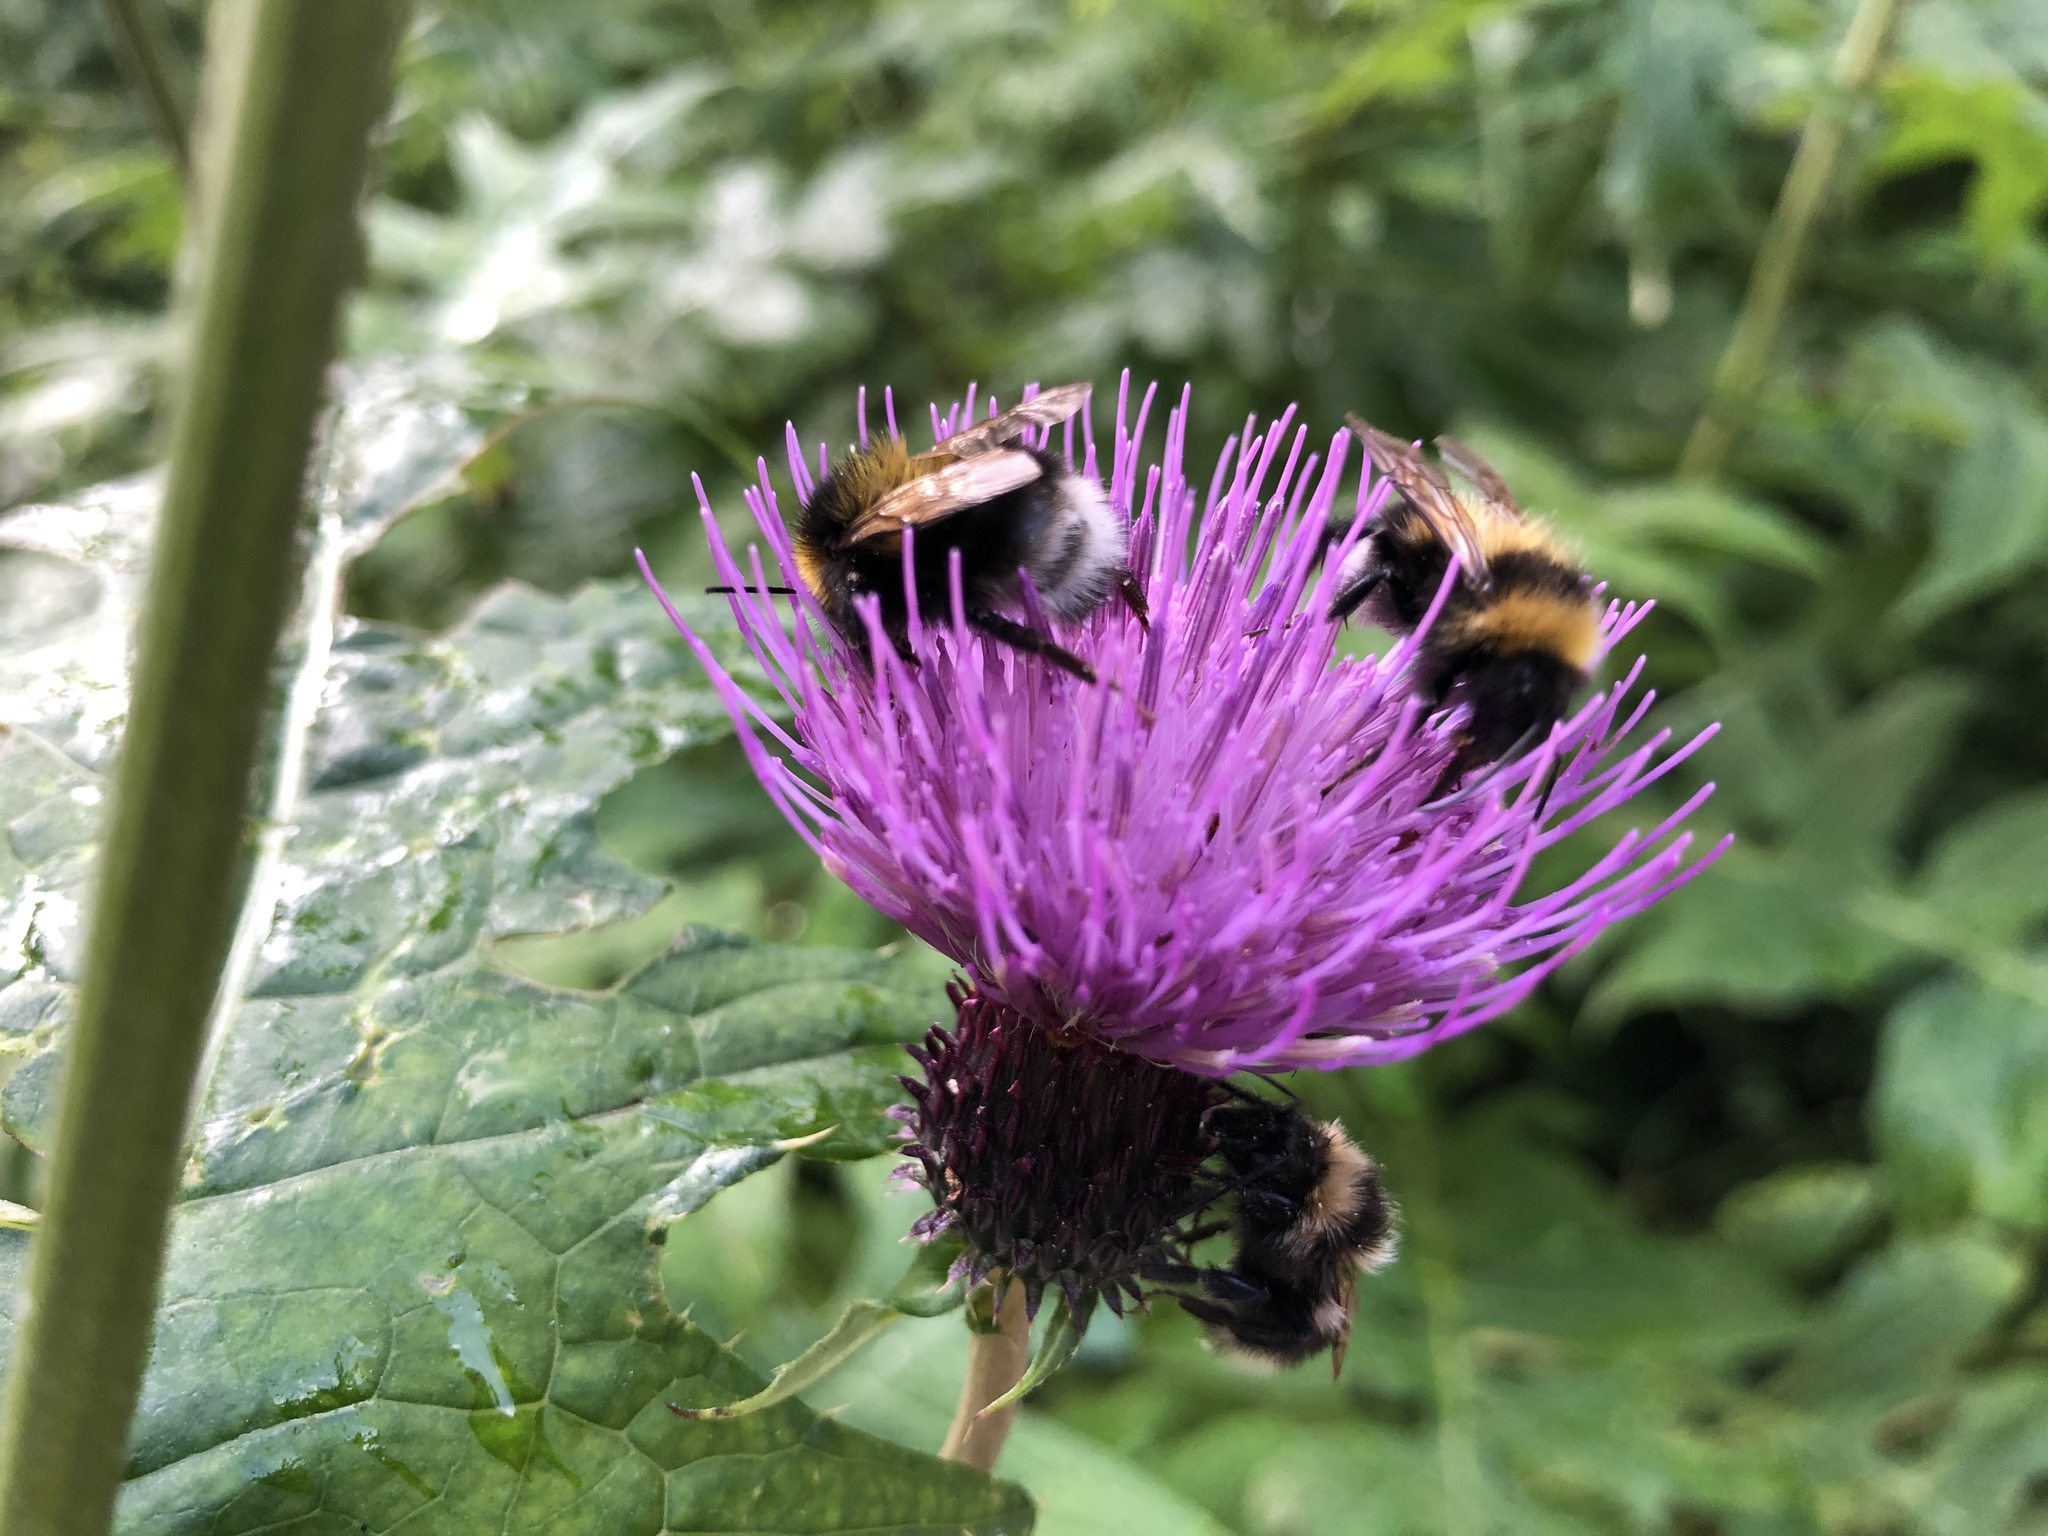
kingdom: Animalia
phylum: Arthropoda
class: Insecta
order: Hymenoptera
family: Apidae
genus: Bombus
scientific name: Bombus hortorum
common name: Garden bumblebee
